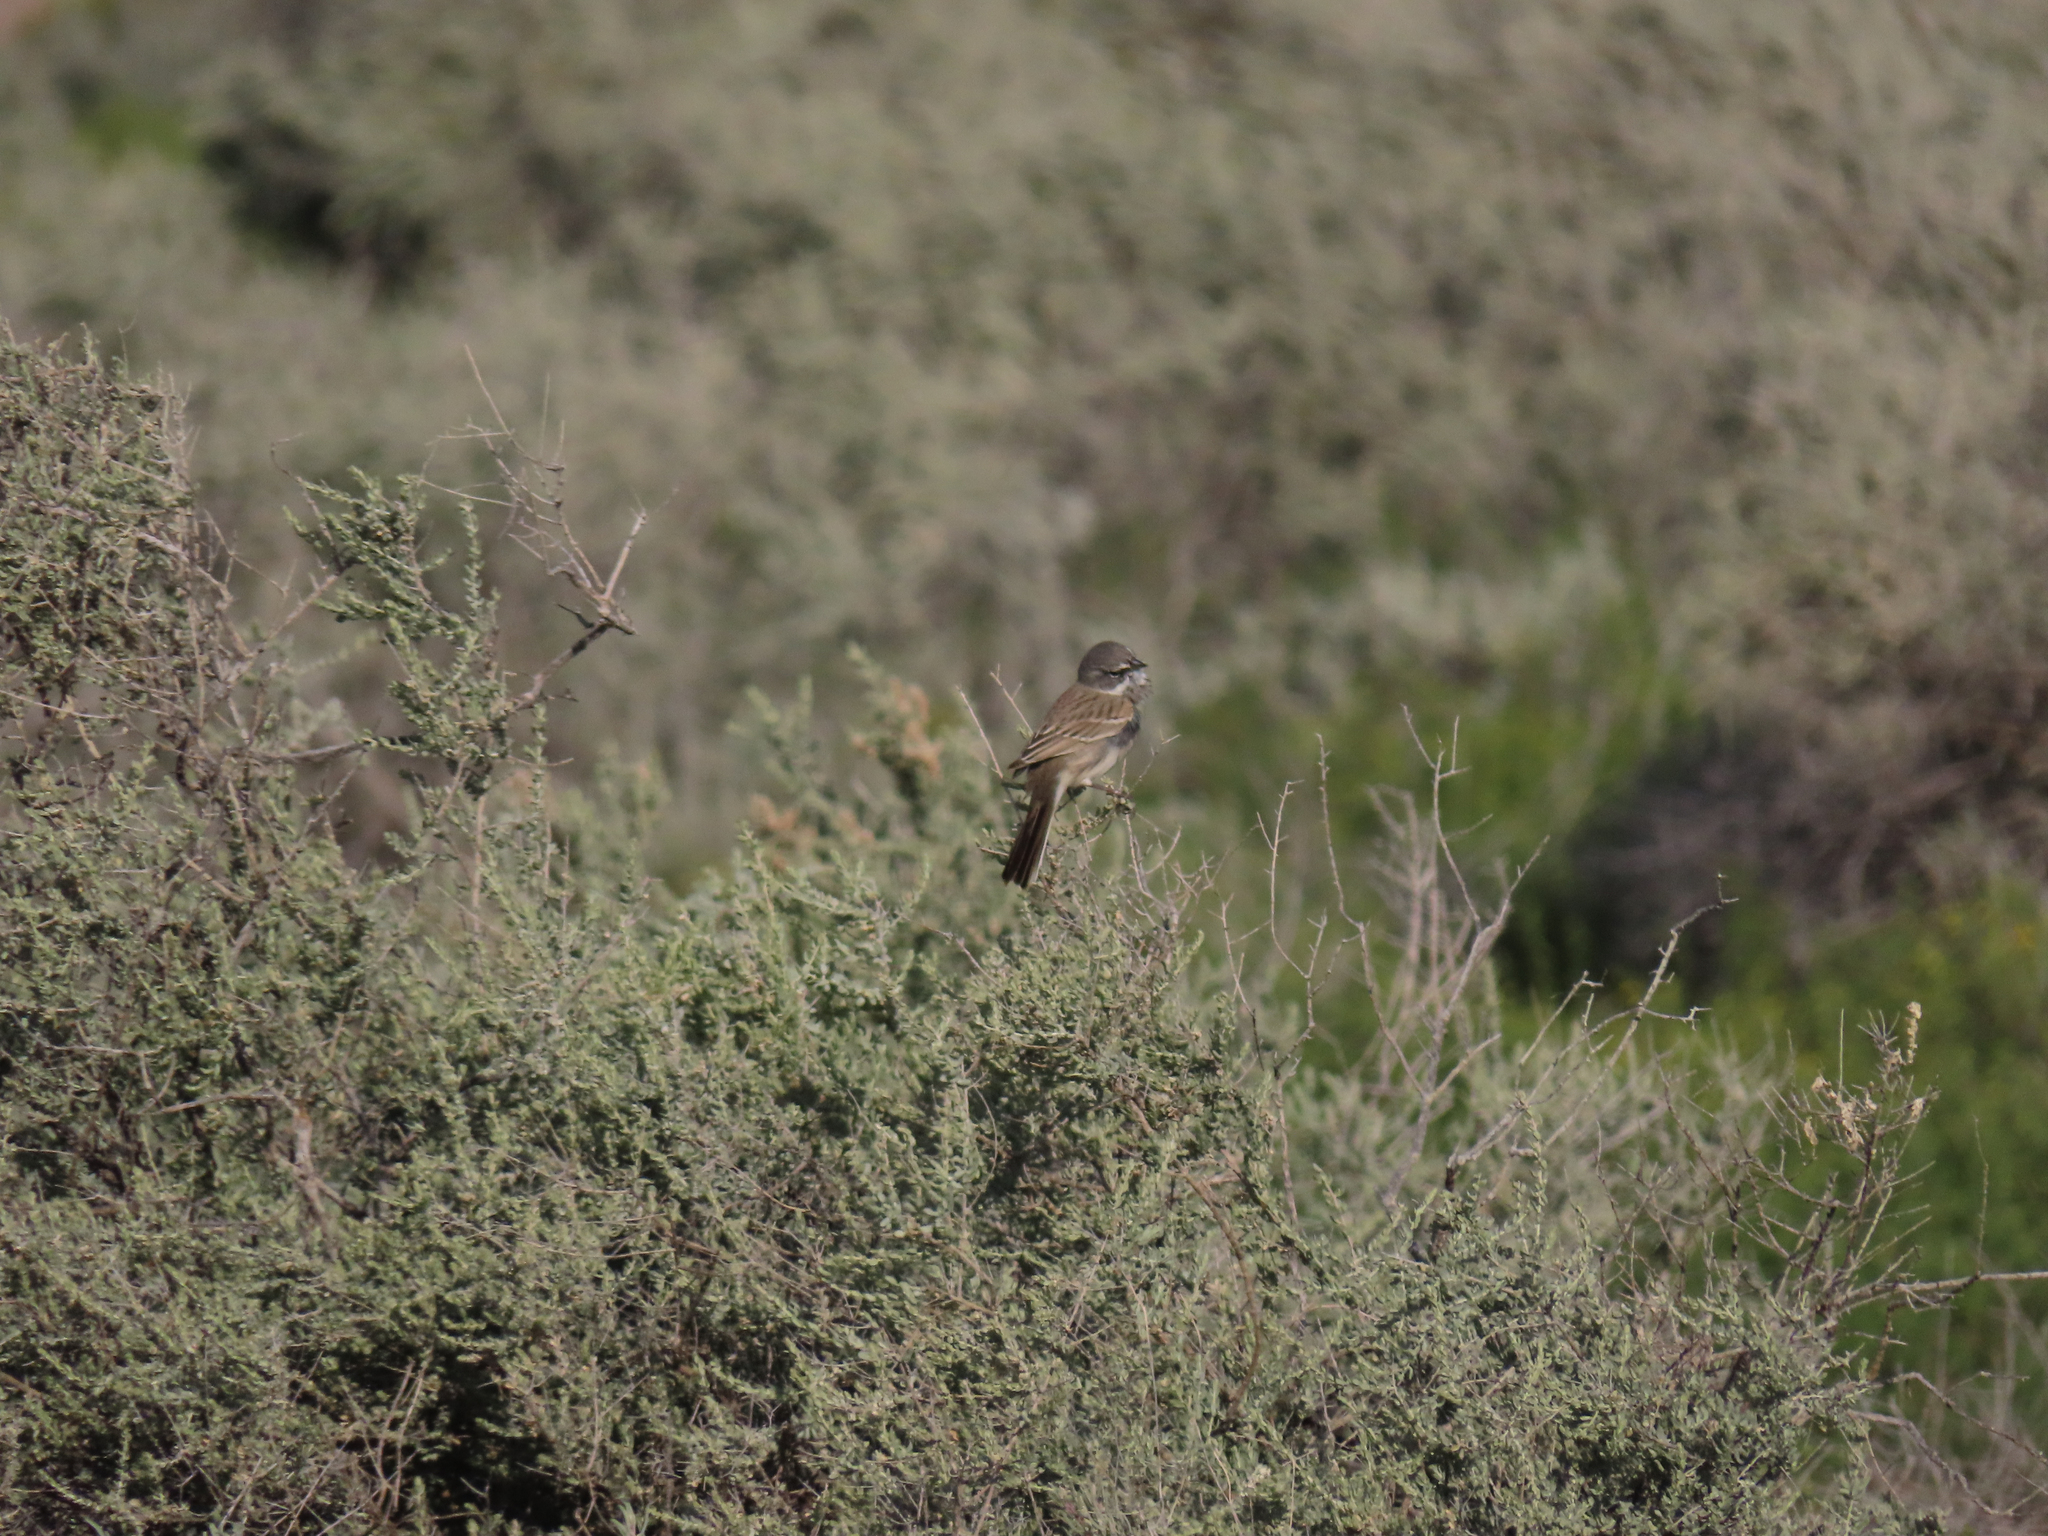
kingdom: Animalia
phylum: Chordata
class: Aves
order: Passeriformes
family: Passerellidae
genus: Artemisiospiza
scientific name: Artemisiospiza nevadensis
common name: Sagebrush sparrow
